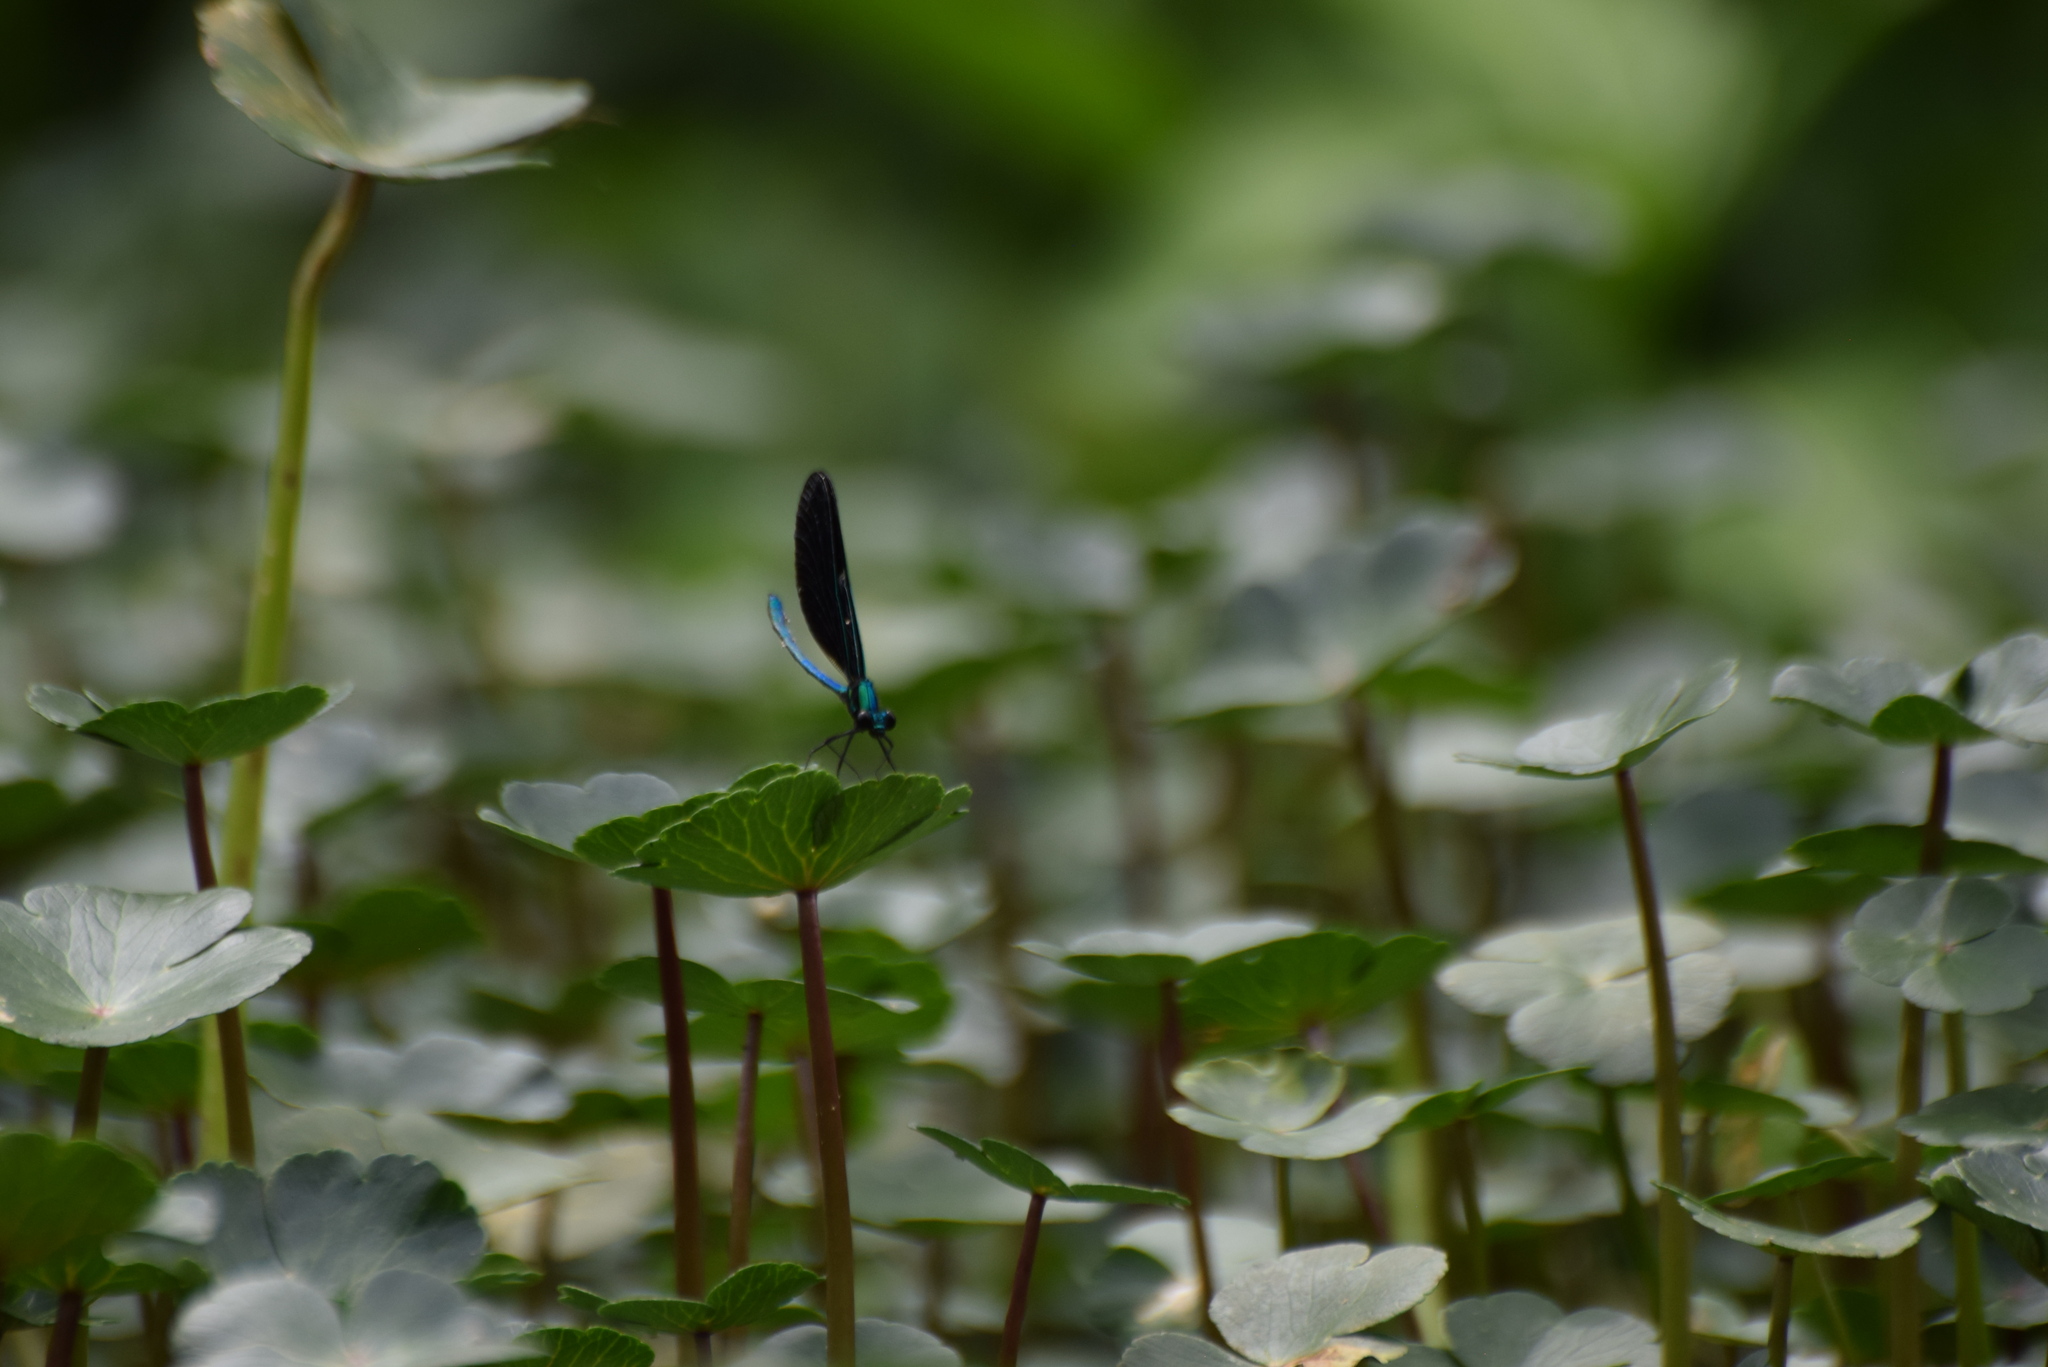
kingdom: Animalia
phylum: Arthropoda
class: Insecta
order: Odonata
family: Calopterygidae
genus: Calopteryx
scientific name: Calopteryx maculata
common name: Ebony jewelwing
